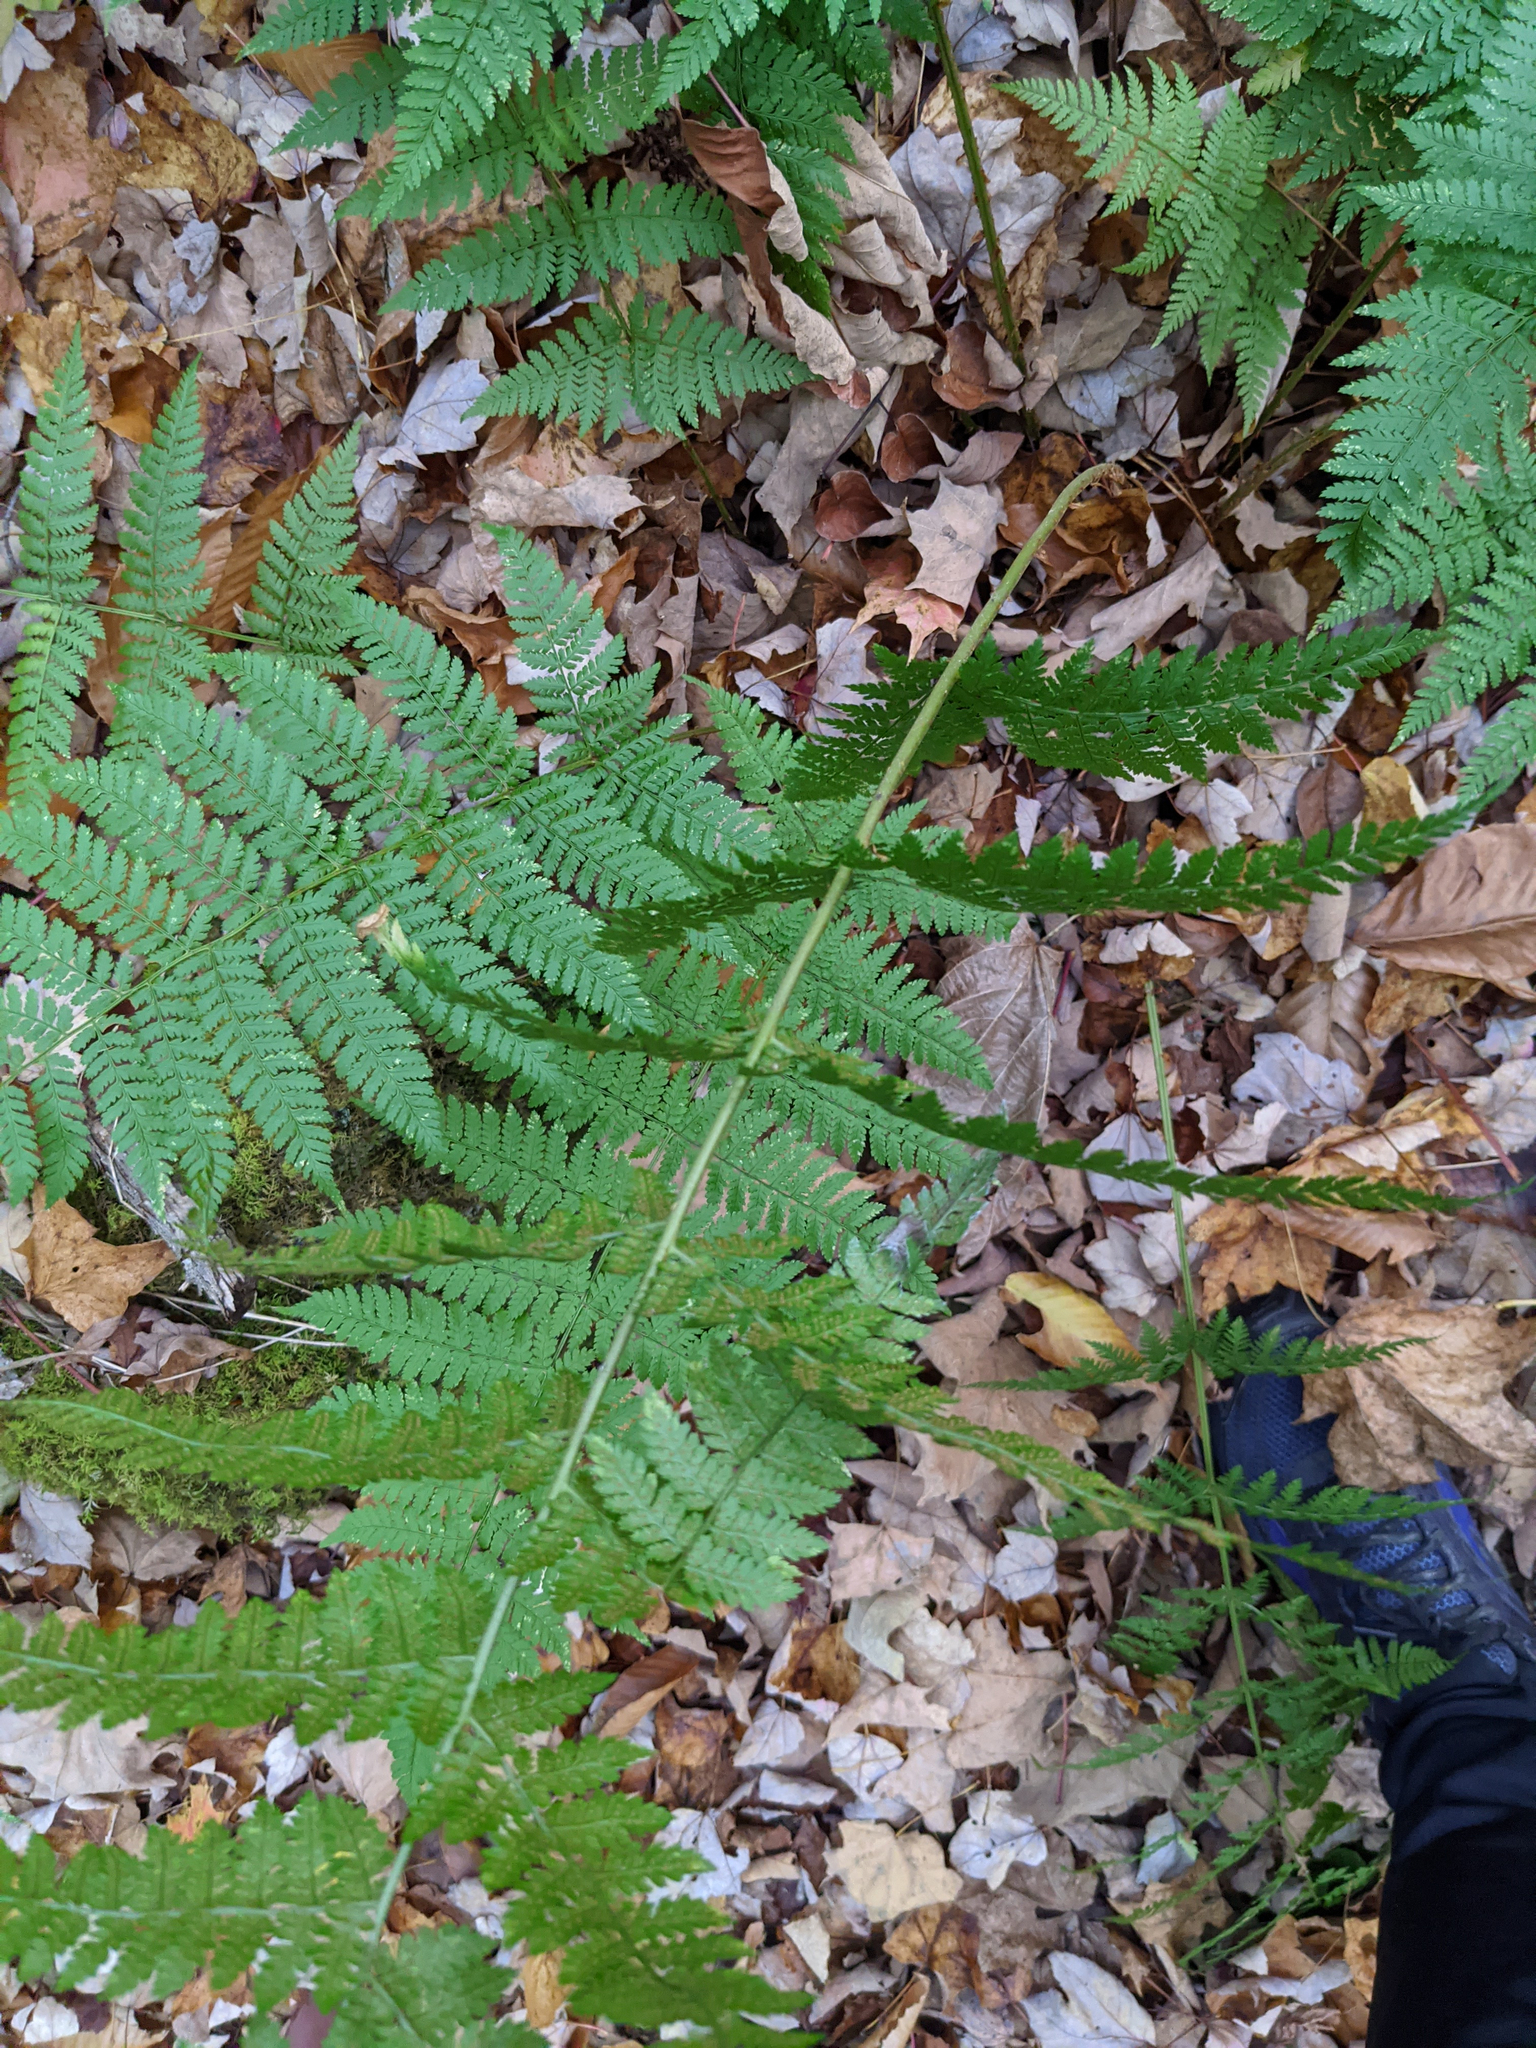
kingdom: Plantae
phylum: Tracheophyta
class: Polypodiopsida
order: Polypodiales
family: Dryopteridaceae
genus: Dryopteris
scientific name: Dryopteris intermedia
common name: Evergreen wood fern
